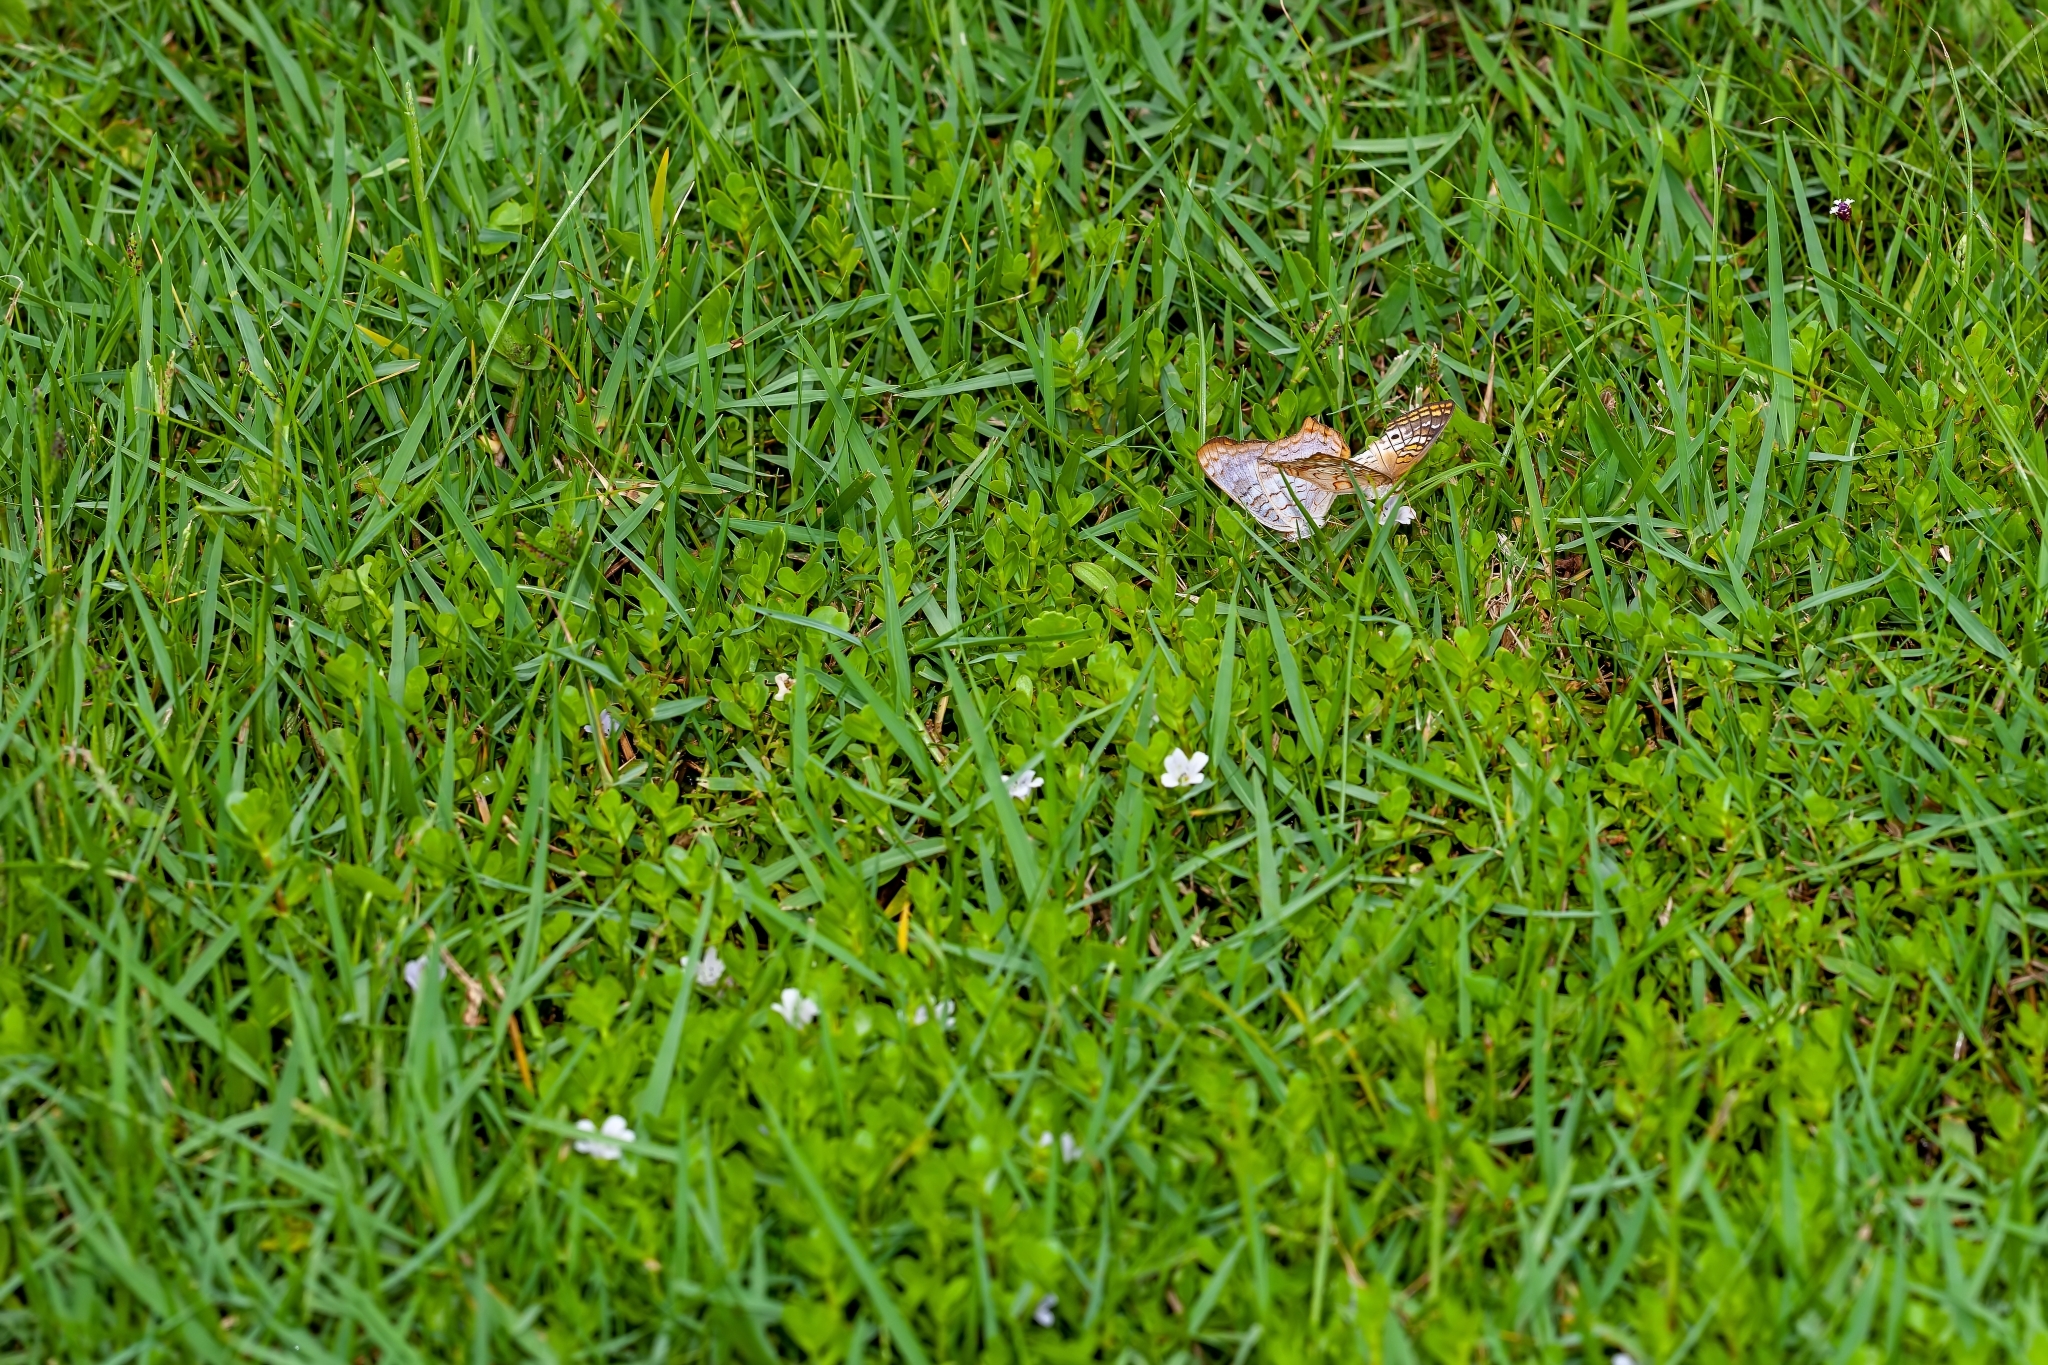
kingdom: Animalia
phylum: Arthropoda
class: Insecta
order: Lepidoptera
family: Nymphalidae
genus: Anartia
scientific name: Anartia jatrophae
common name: White peacock
